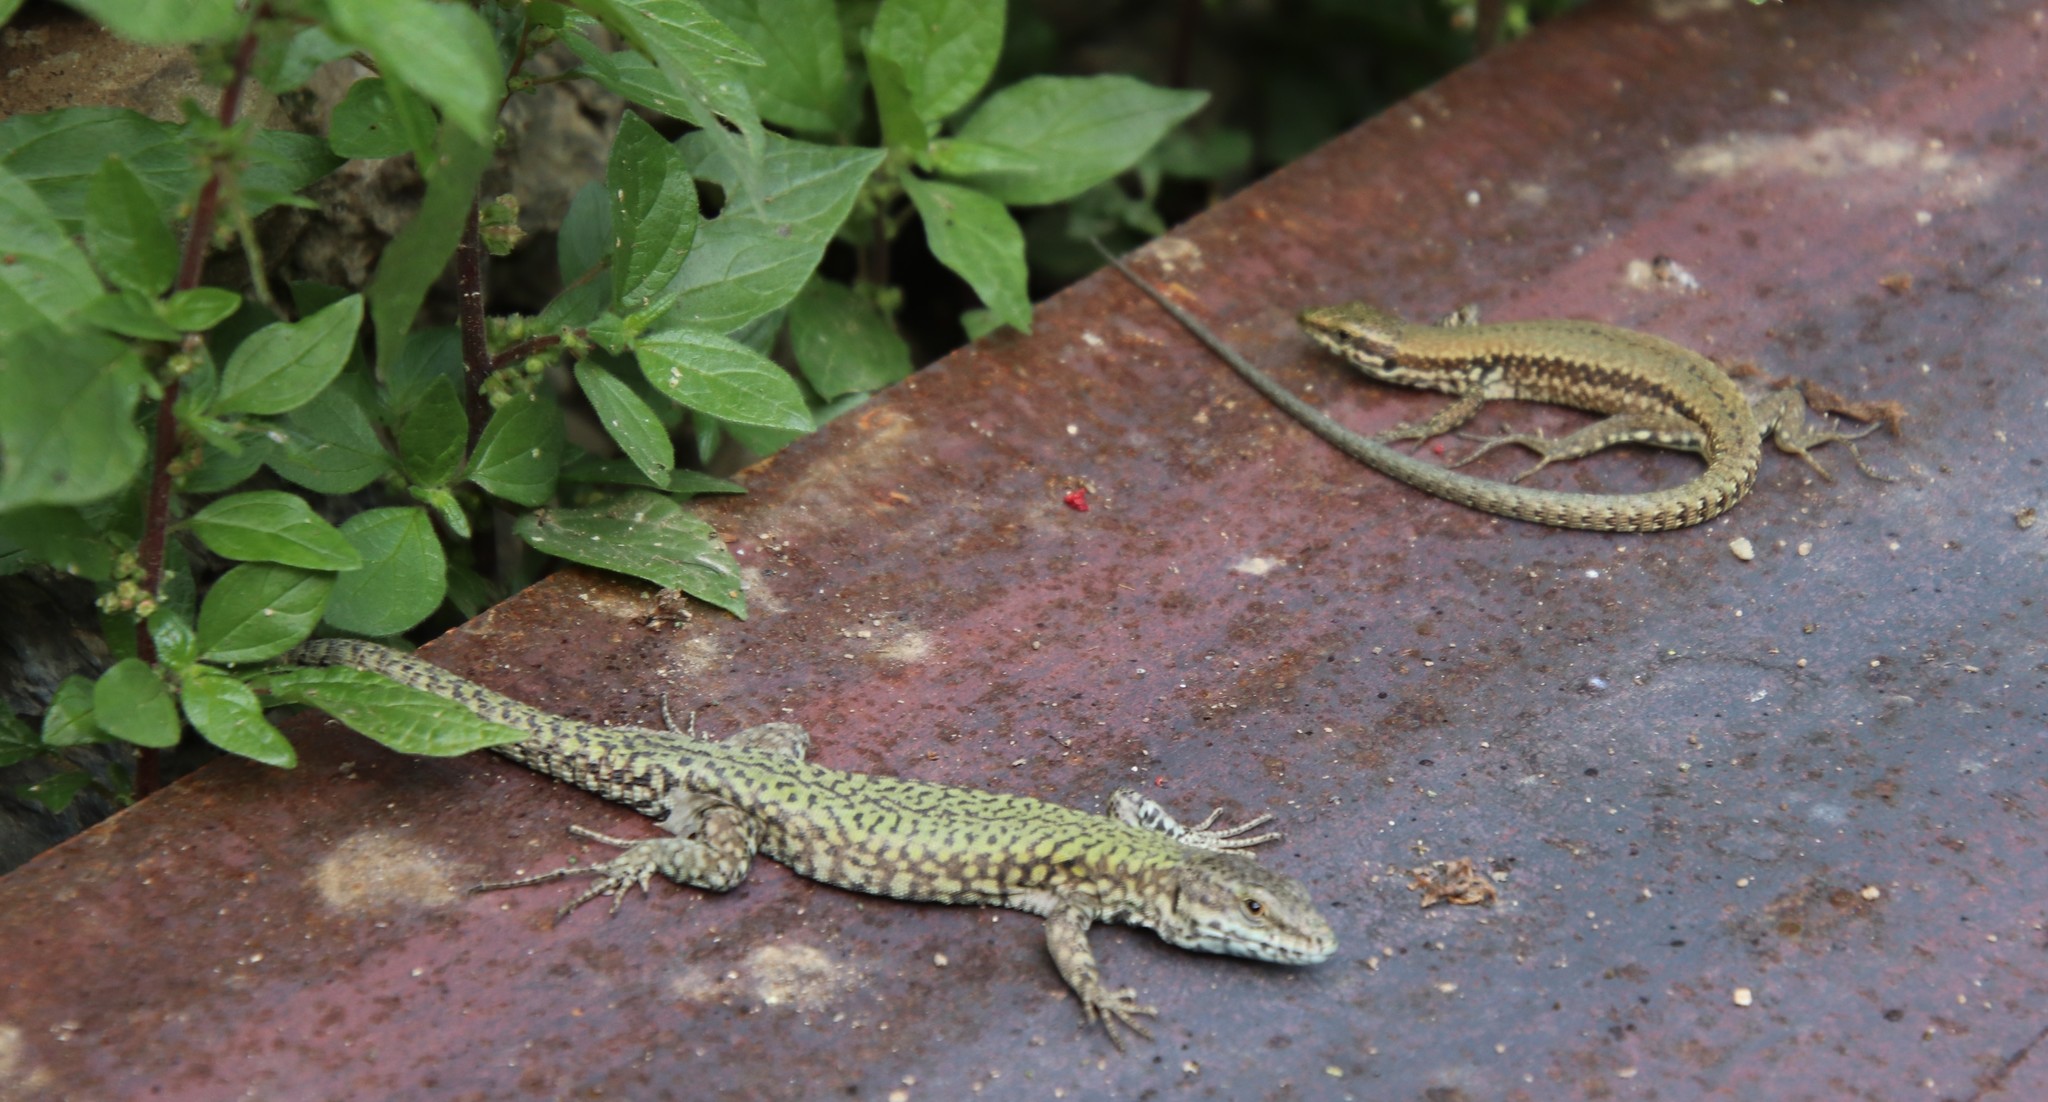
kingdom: Animalia
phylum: Chordata
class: Squamata
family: Lacertidae
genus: Podarcis
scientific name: Podarcis muralis
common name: Common wall lizard
